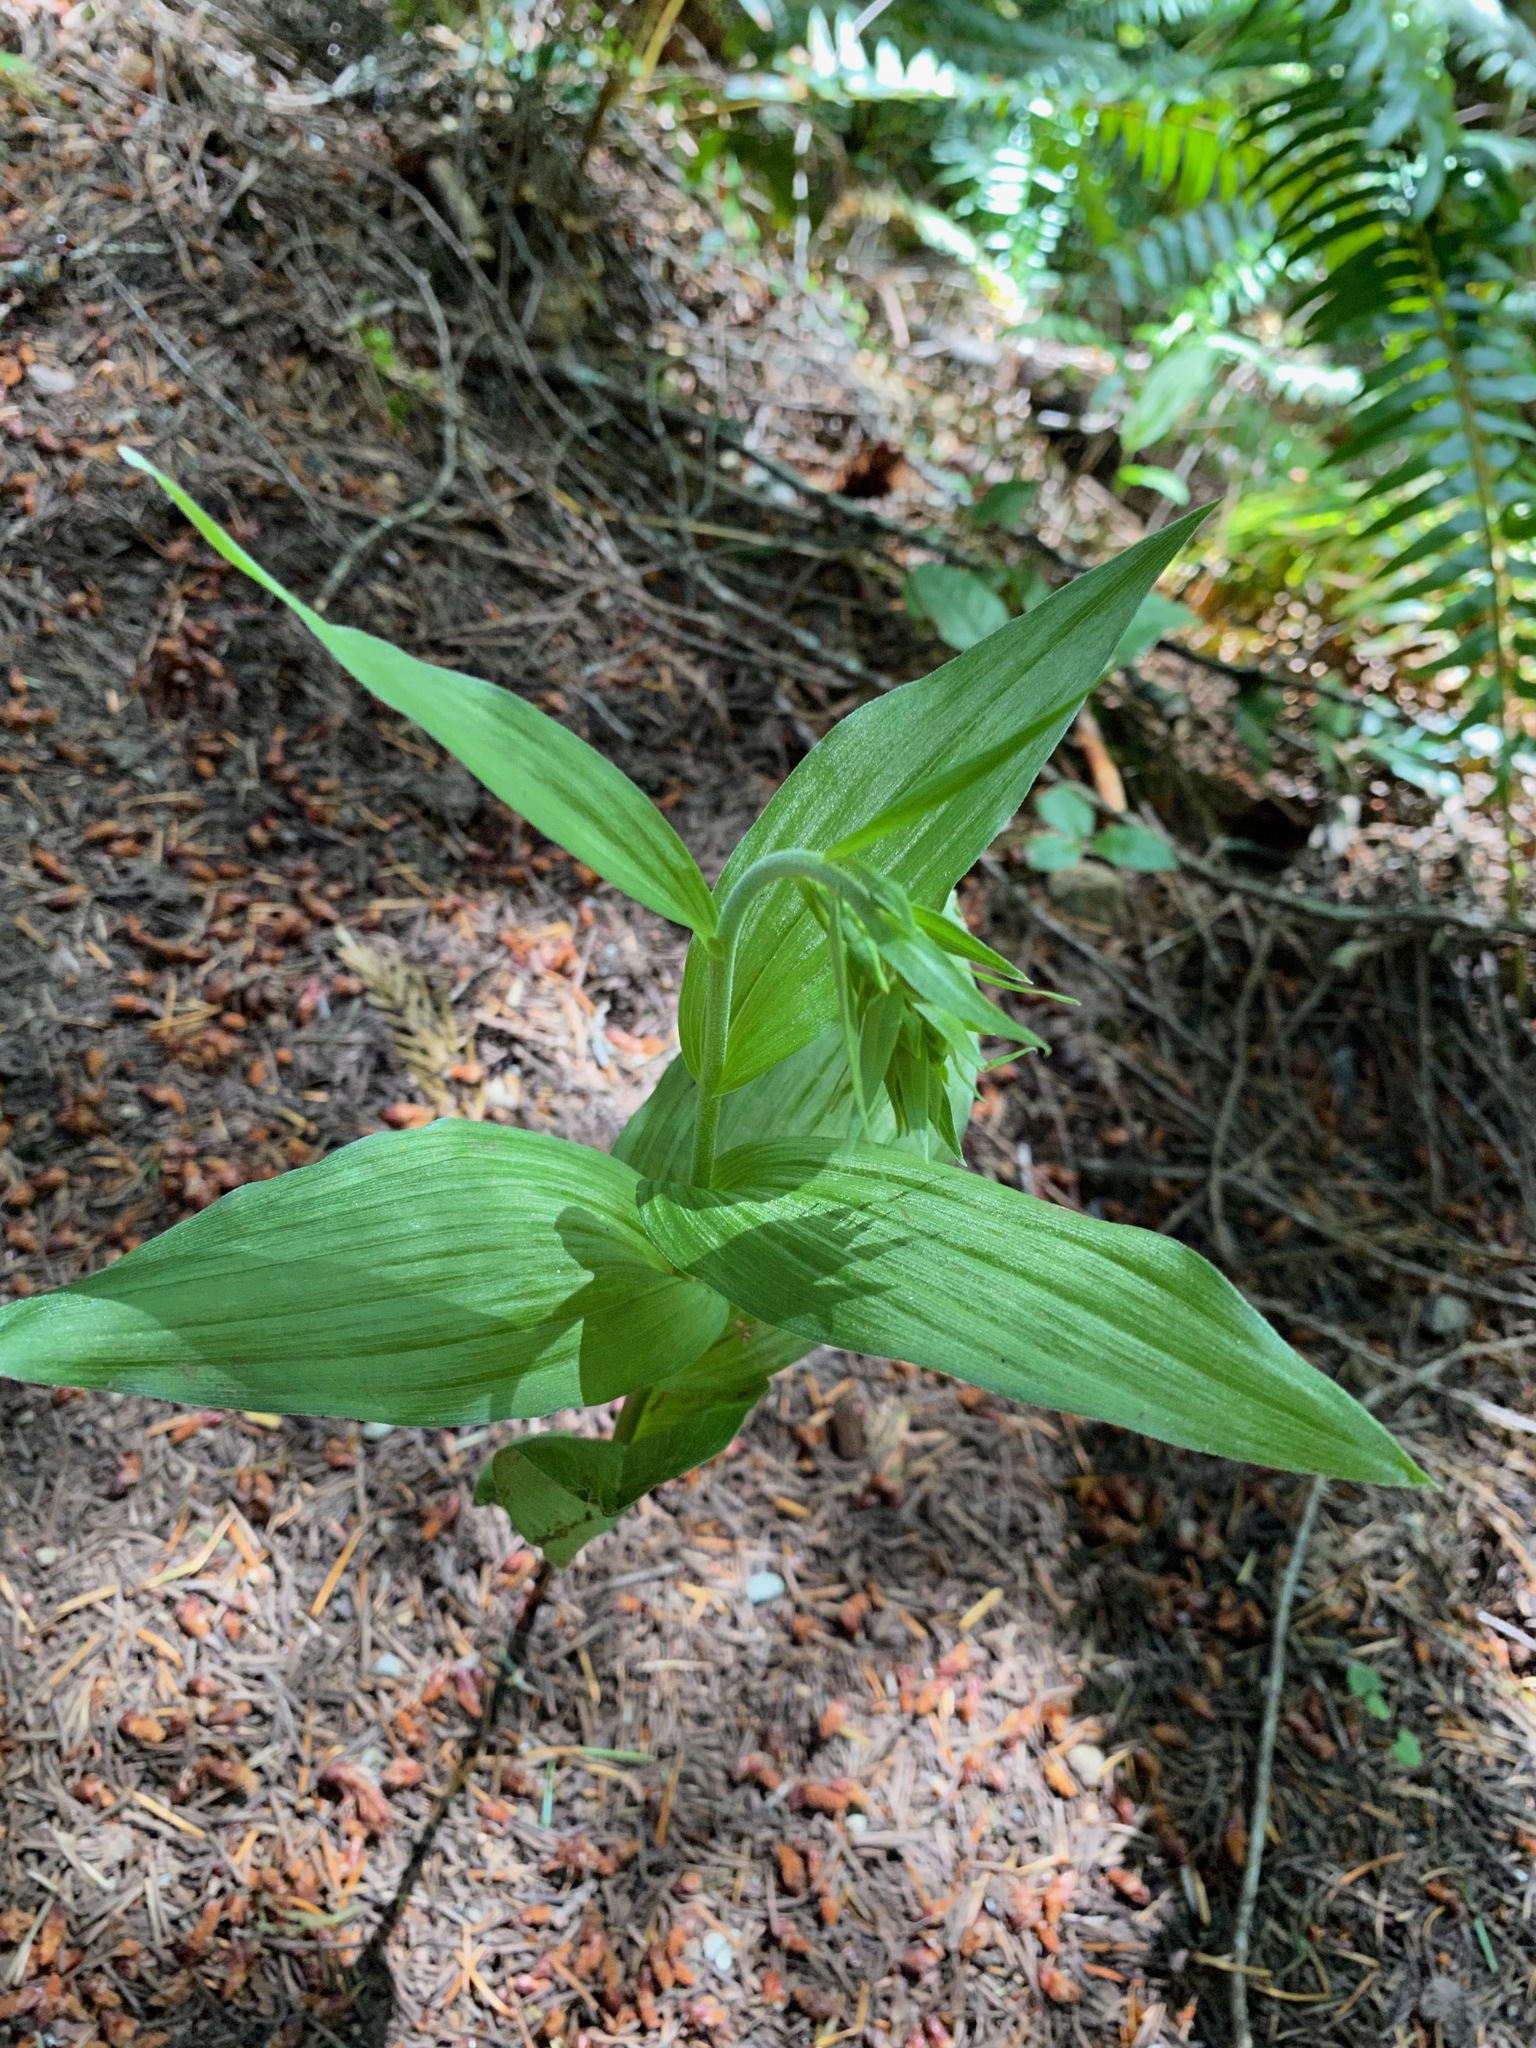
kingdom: Plantae
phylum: Tracheophyta
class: Liliopsida
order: Asparagales
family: Orchidaceae
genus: Epipactis
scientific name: Epipactis helleborine
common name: Broad-leaved helleborine
